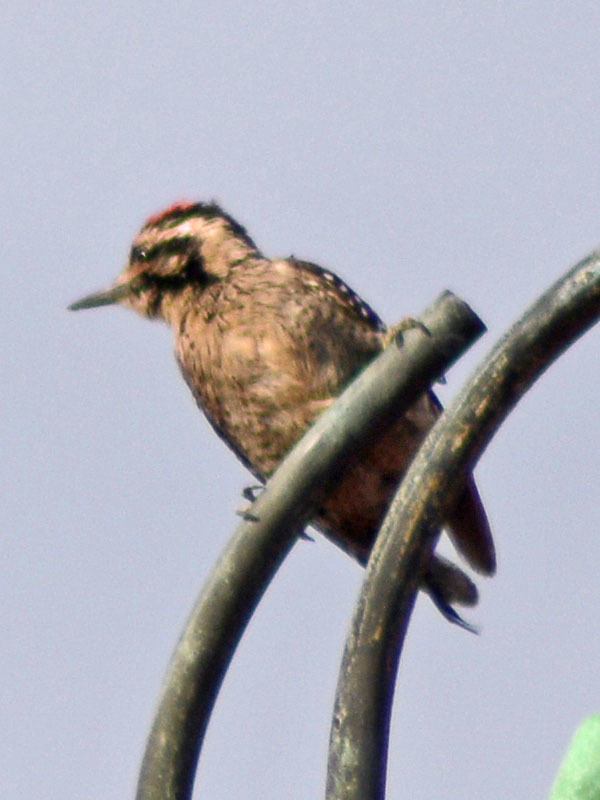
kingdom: Animalia
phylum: Chordata
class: Aves
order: Piciformes
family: Picidae
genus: Dryobates
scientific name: Dryobates scalaris
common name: Ladder-backed woodpecker
